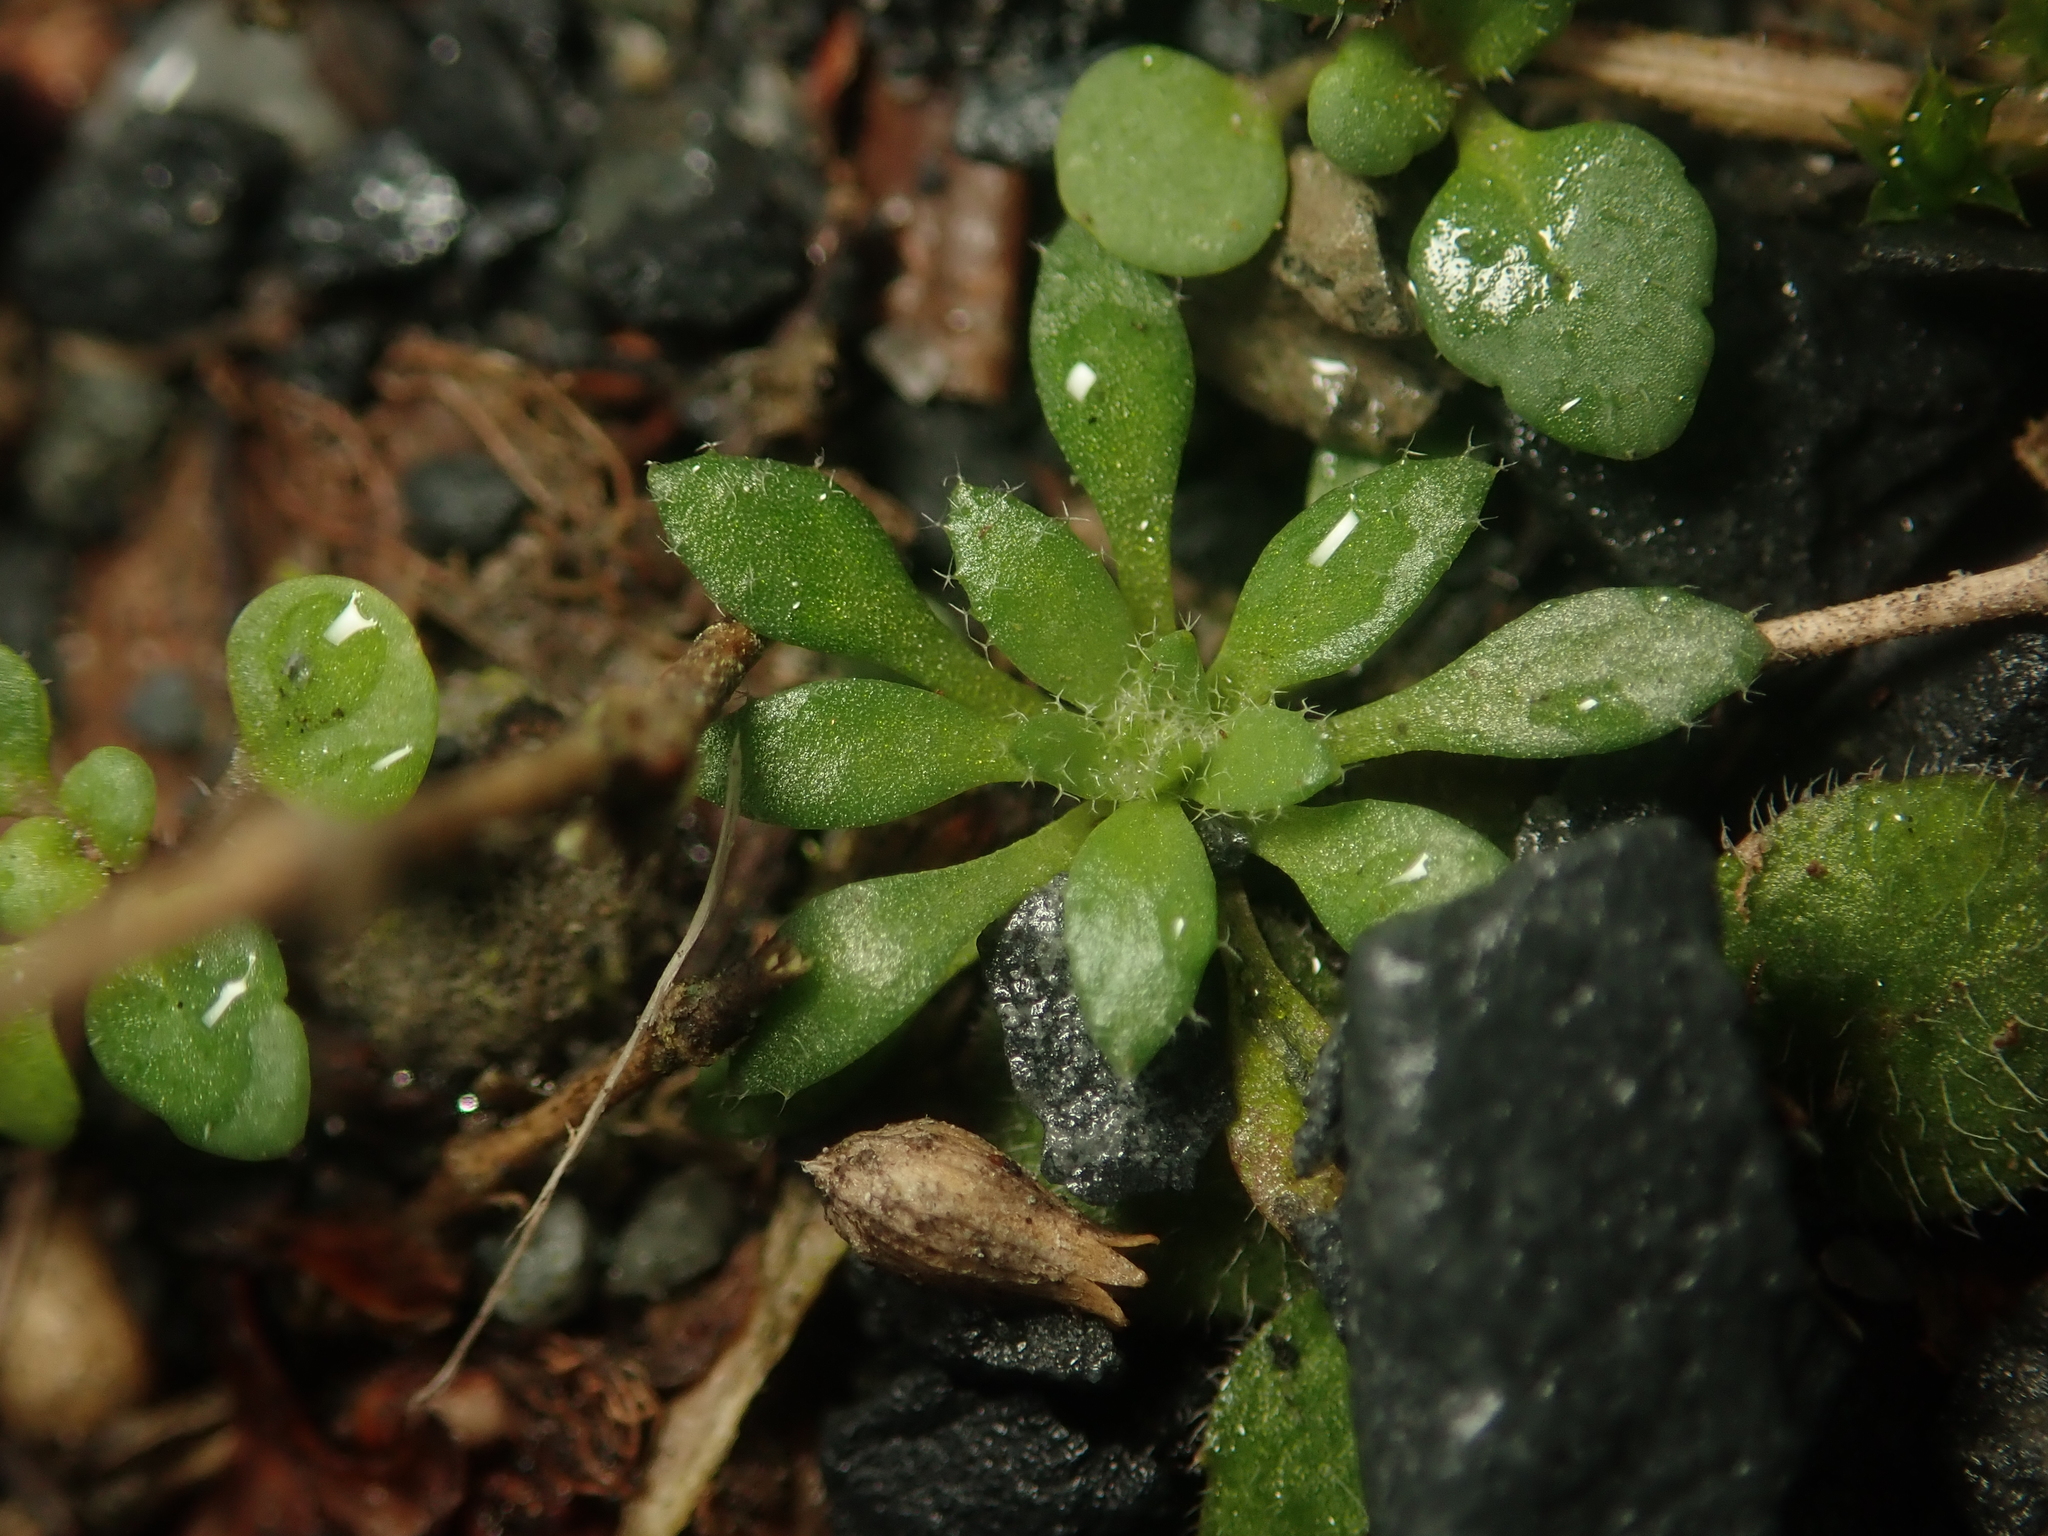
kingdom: Plantae
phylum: Tracheophyta
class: Magnoliopsida
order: Brassicales
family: Brassicaceae
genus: Draba
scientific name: Draba verna
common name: Spring draba
